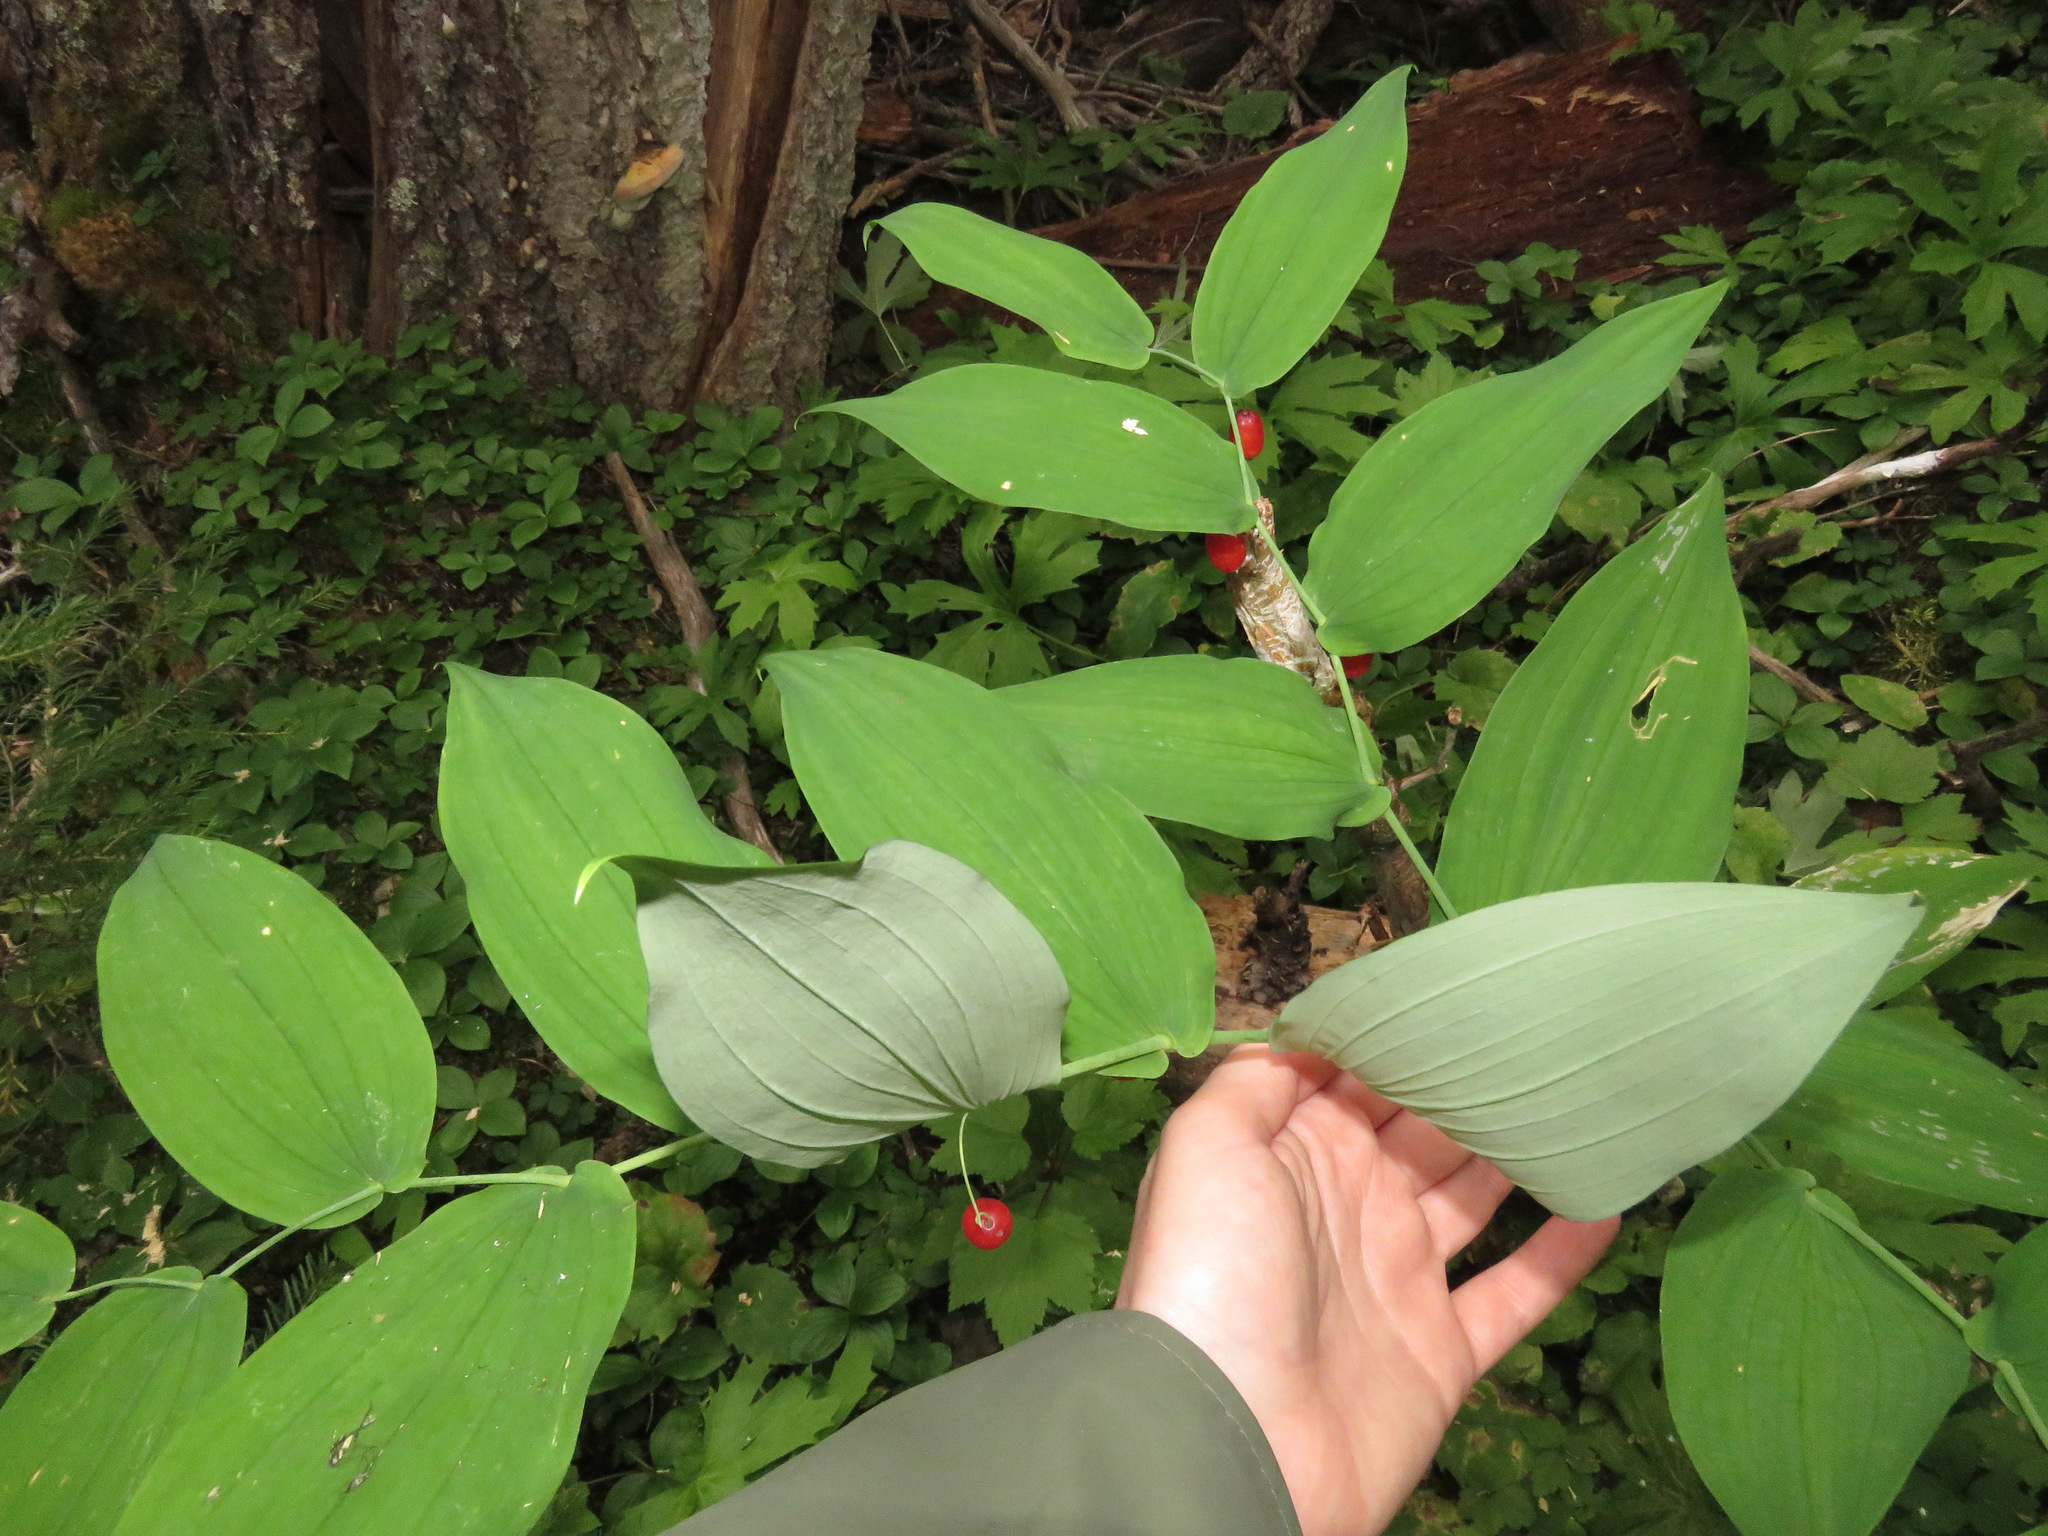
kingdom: Plantae
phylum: Tracheophyta
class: Liliopsida
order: Liliales
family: Liliaceae
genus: Streptopus
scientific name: Streptopus amplexifolius
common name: Clasp twisted stalk
